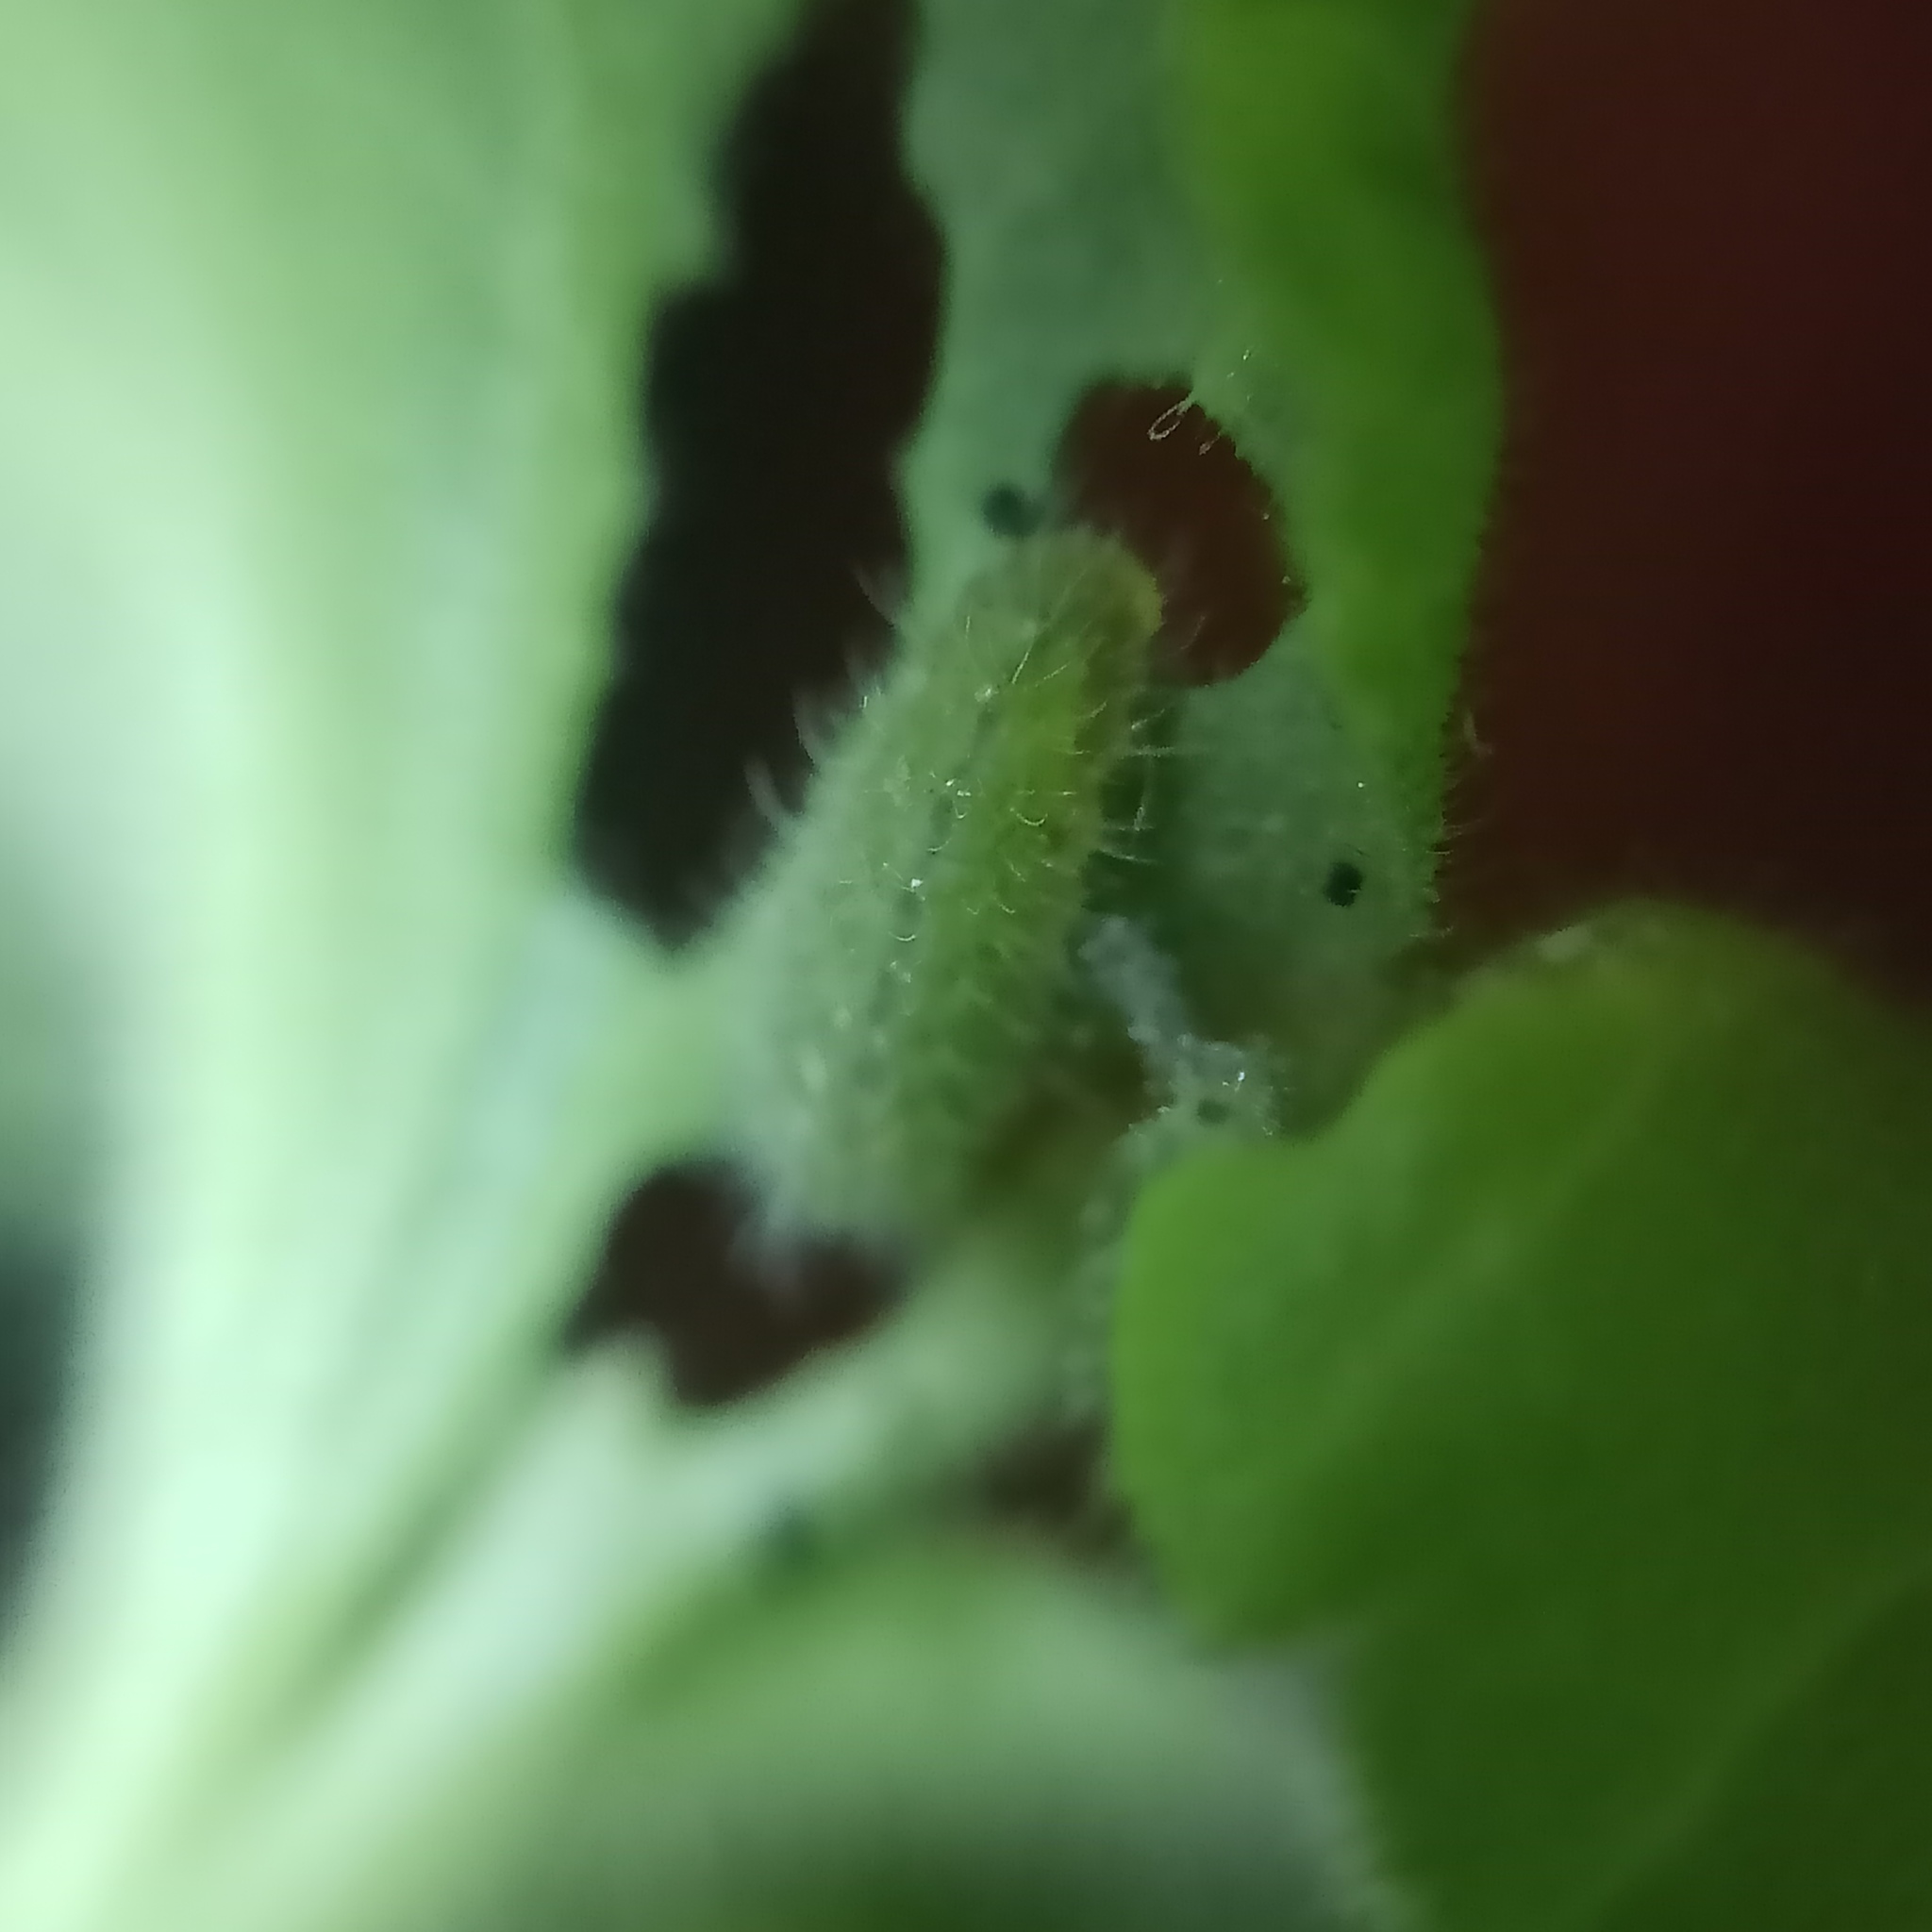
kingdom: Animalia
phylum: Arthropoda
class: Insecta
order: Lepidoptera
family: Lycaenidae
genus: Cacyreus
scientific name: Cacyreus marshalli
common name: Geranium bronze
